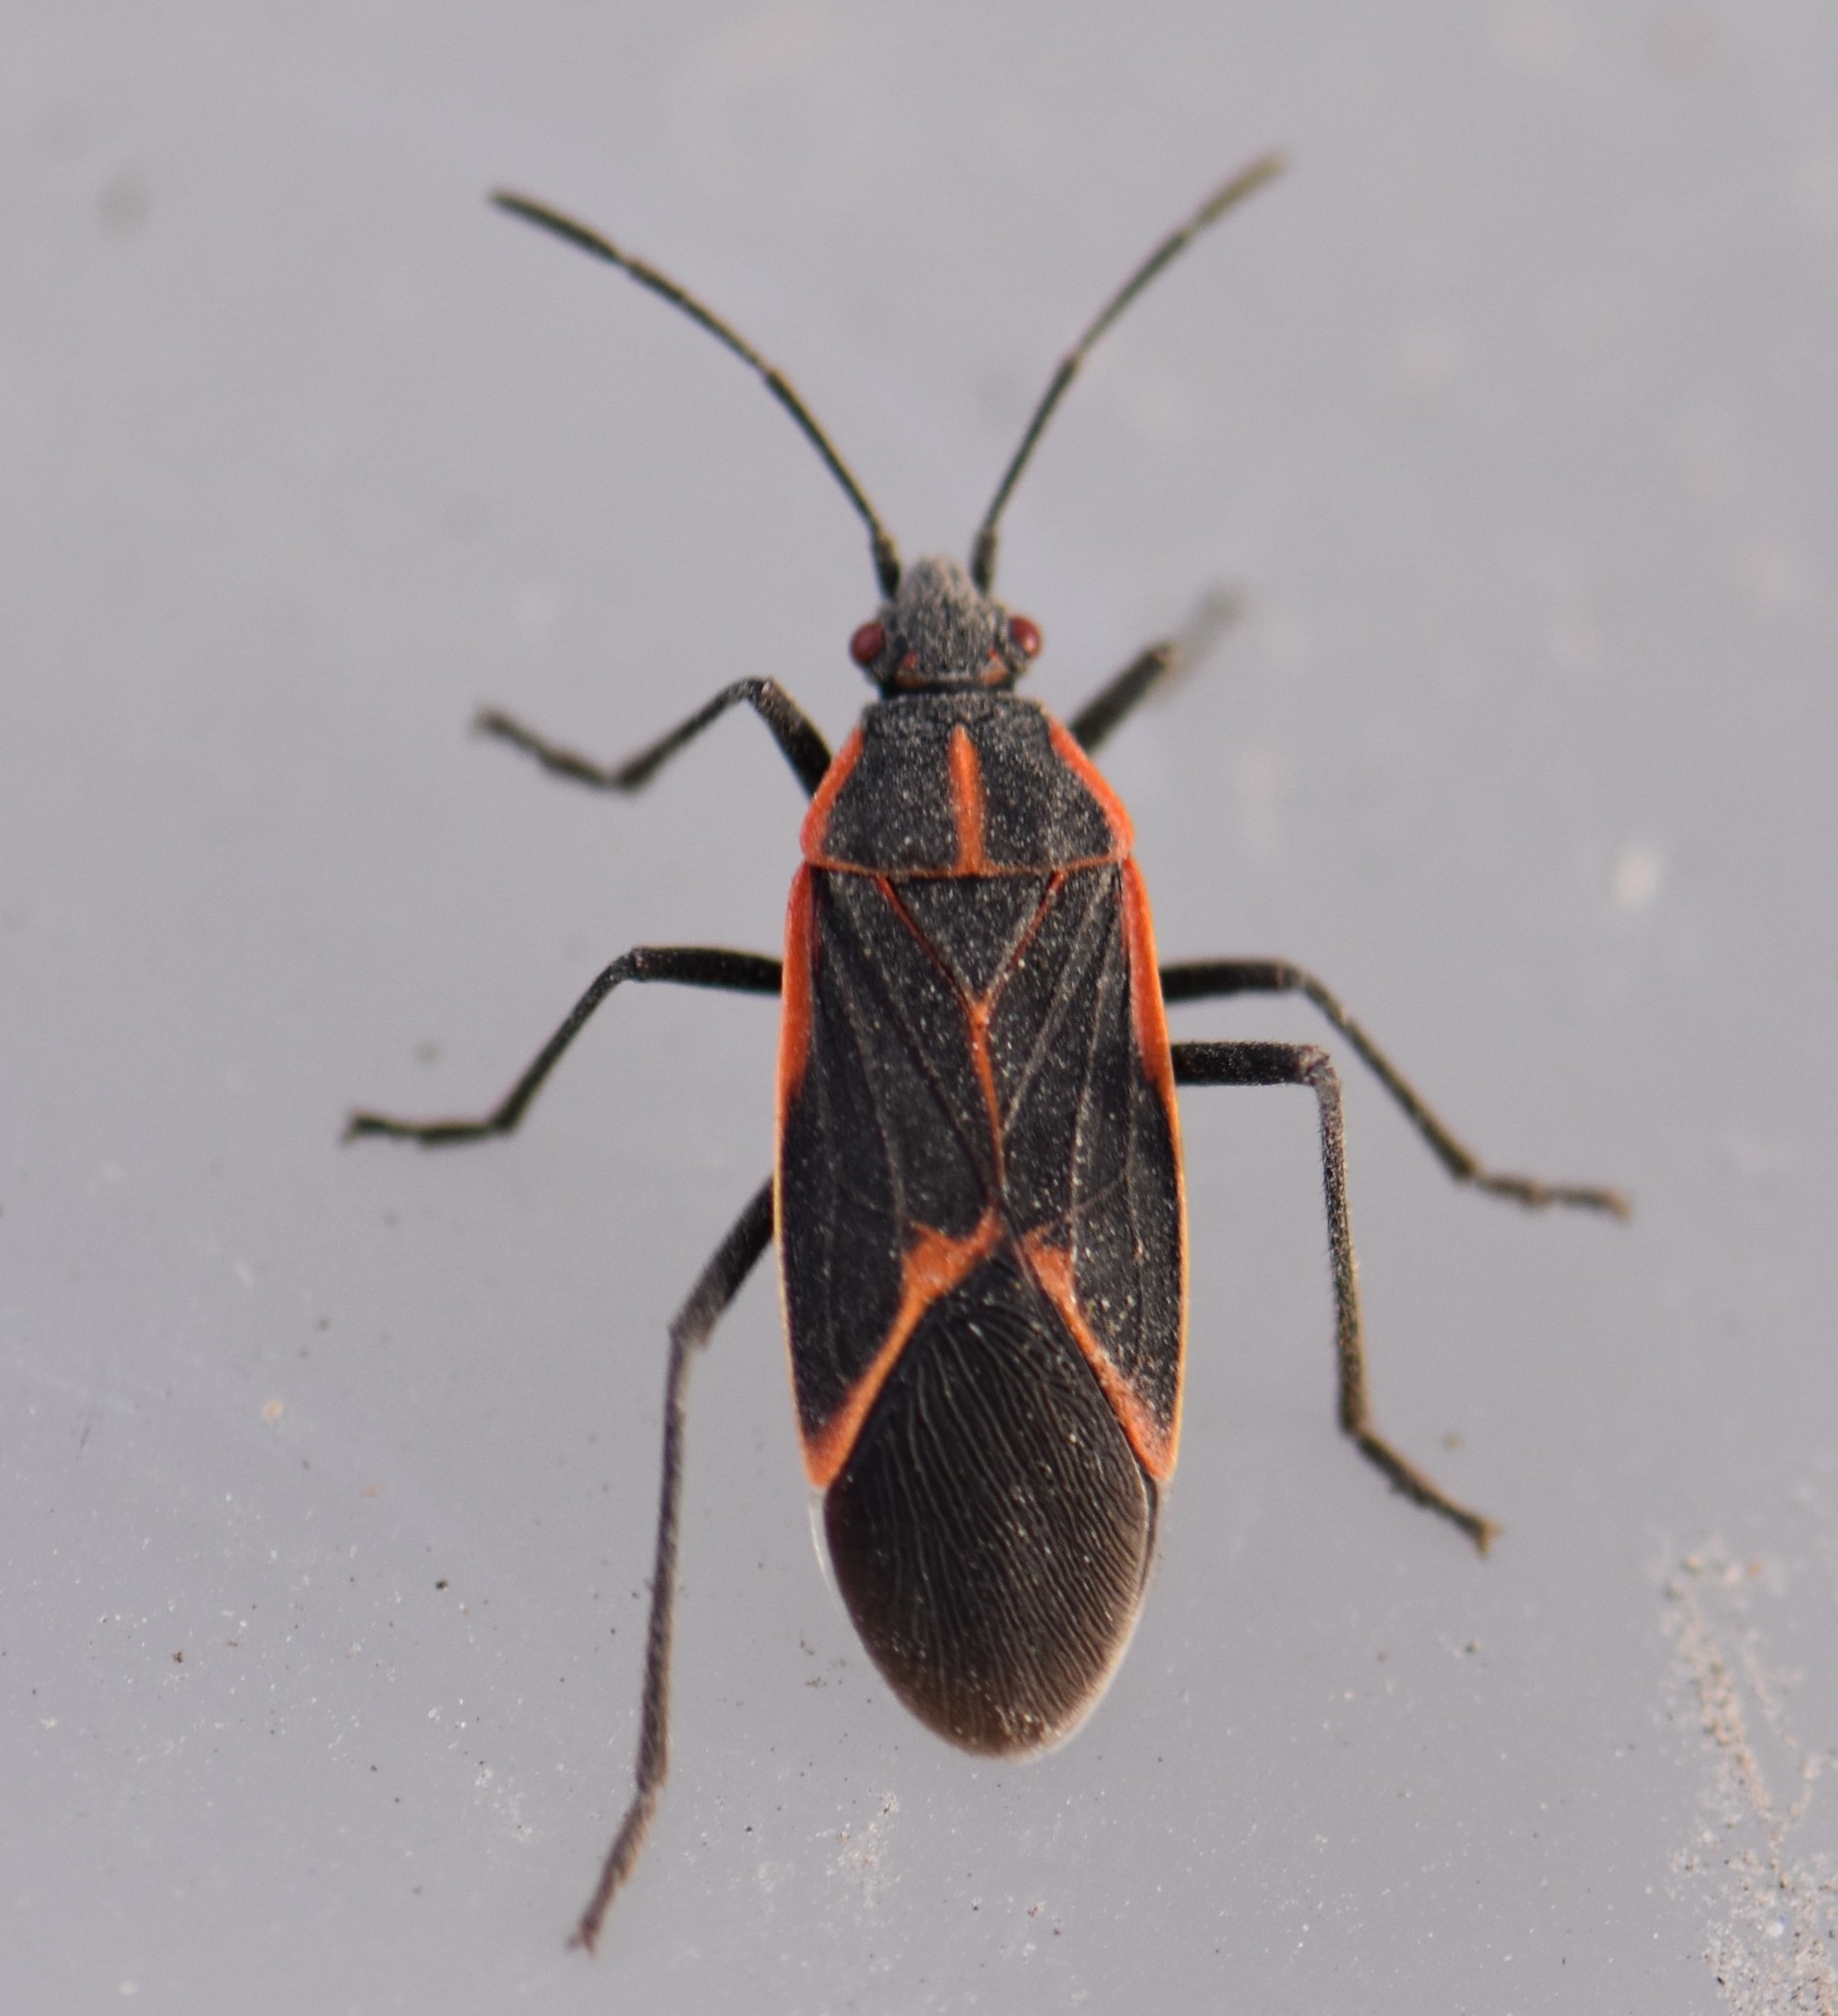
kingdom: Animalia
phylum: Arthropoda
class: Insecta
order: Hemiptera
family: Rhopalidae
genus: Boisea
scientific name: Boisea trivittata
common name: Boxelder bug
